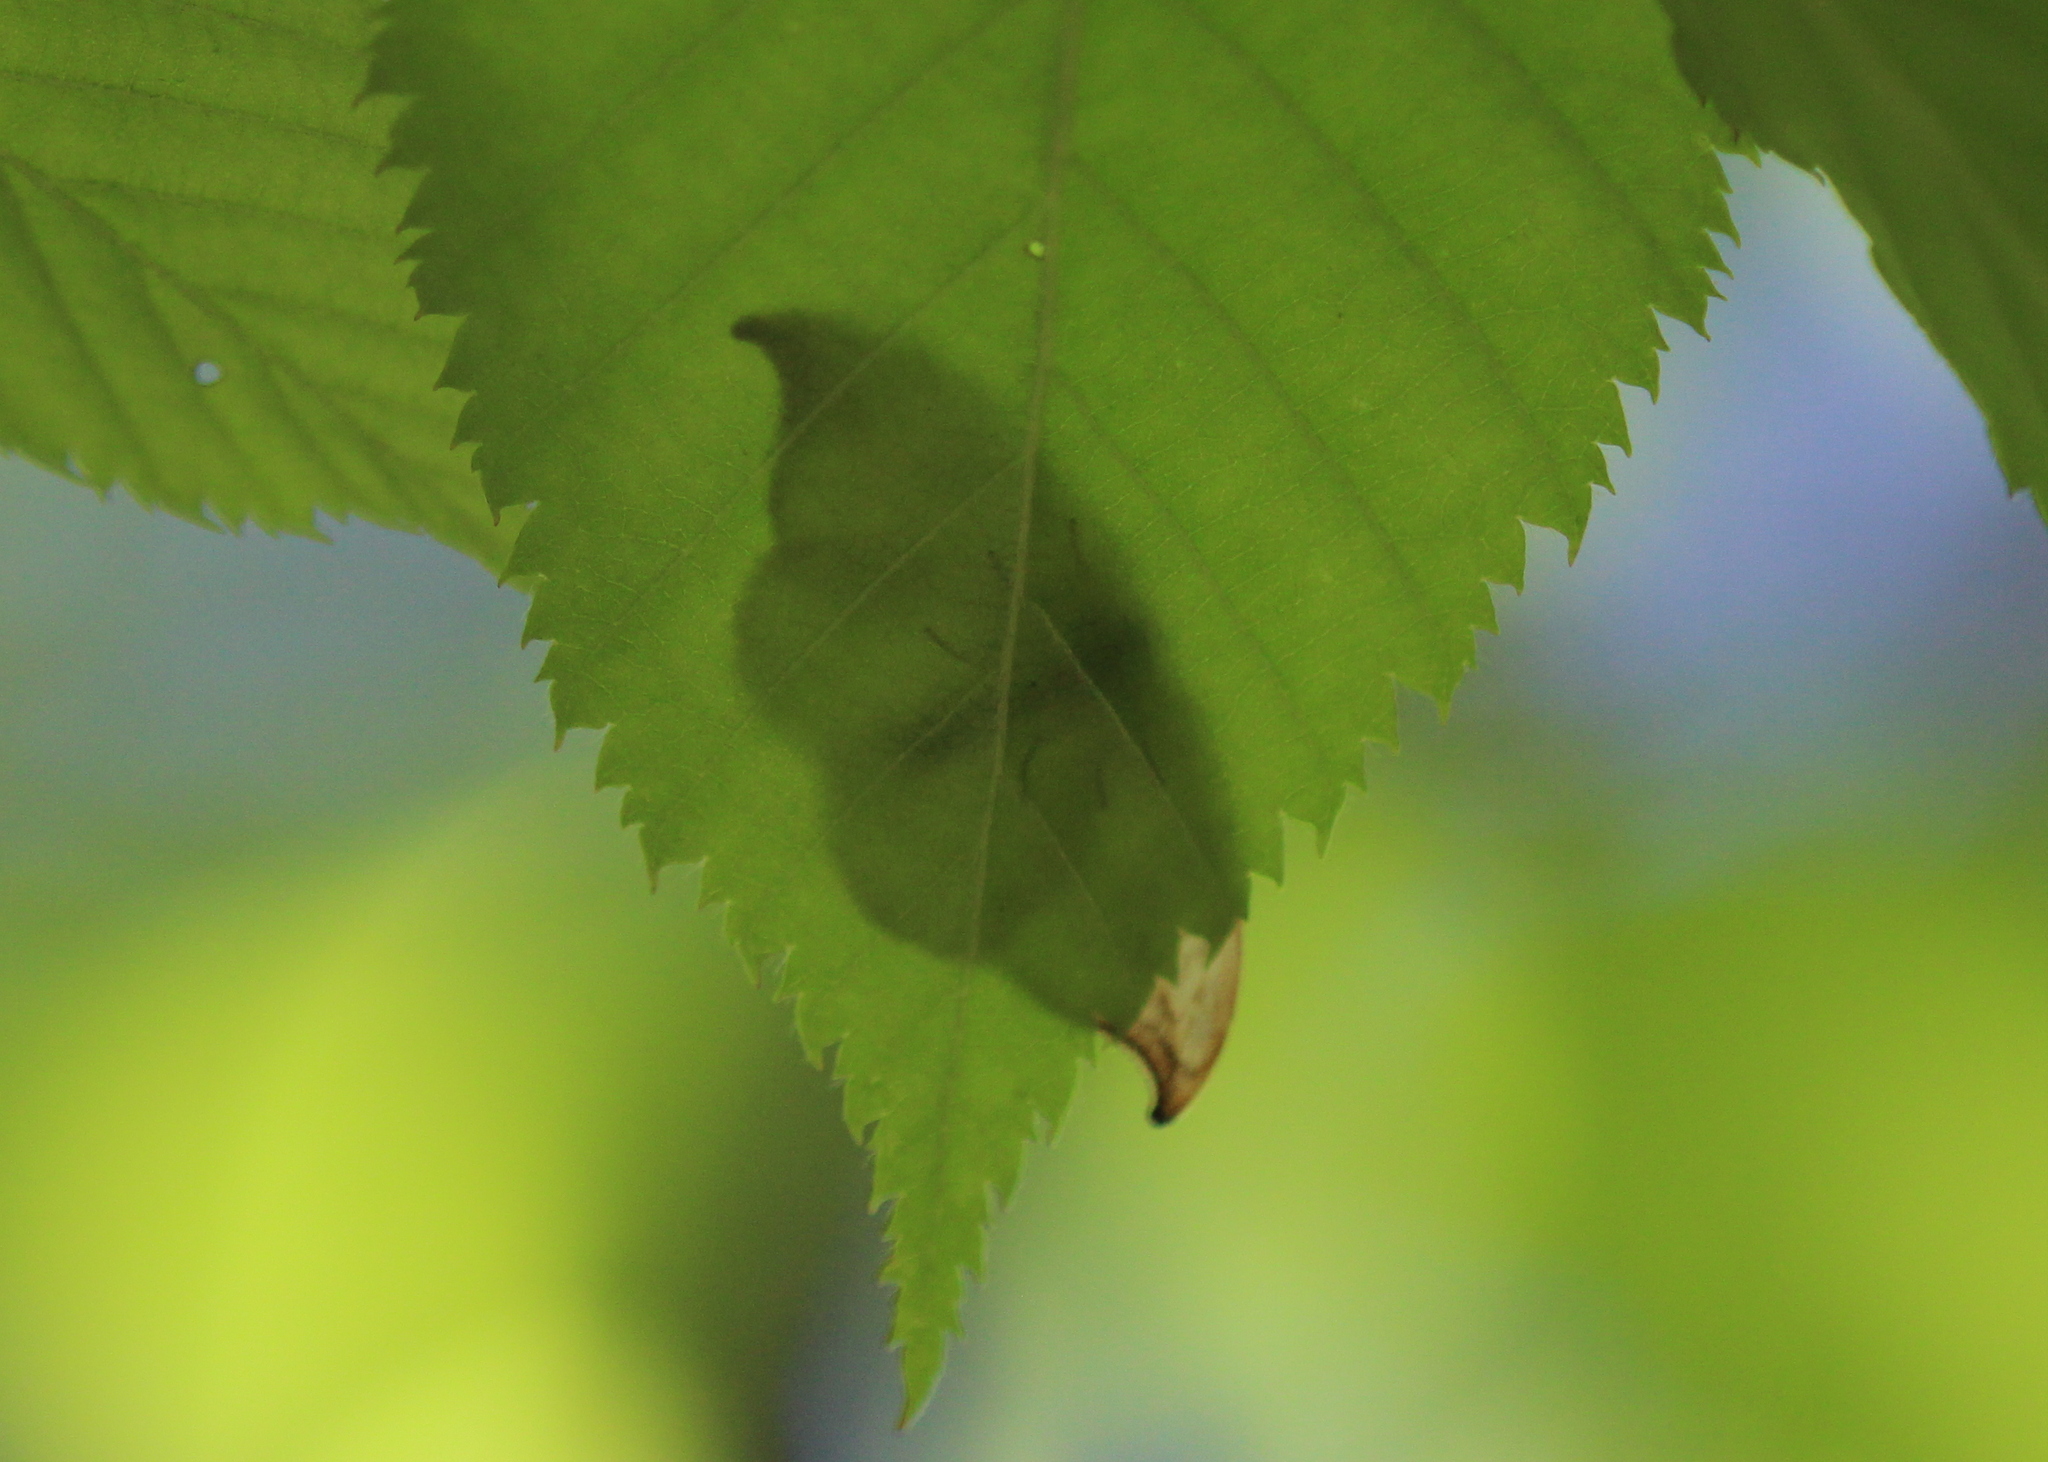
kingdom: Animalia
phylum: Arthropoda
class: Insecta
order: Lepidoptera
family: Drepanidae
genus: Drepana
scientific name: Drepana arcuata
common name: Arched hooktip moth
